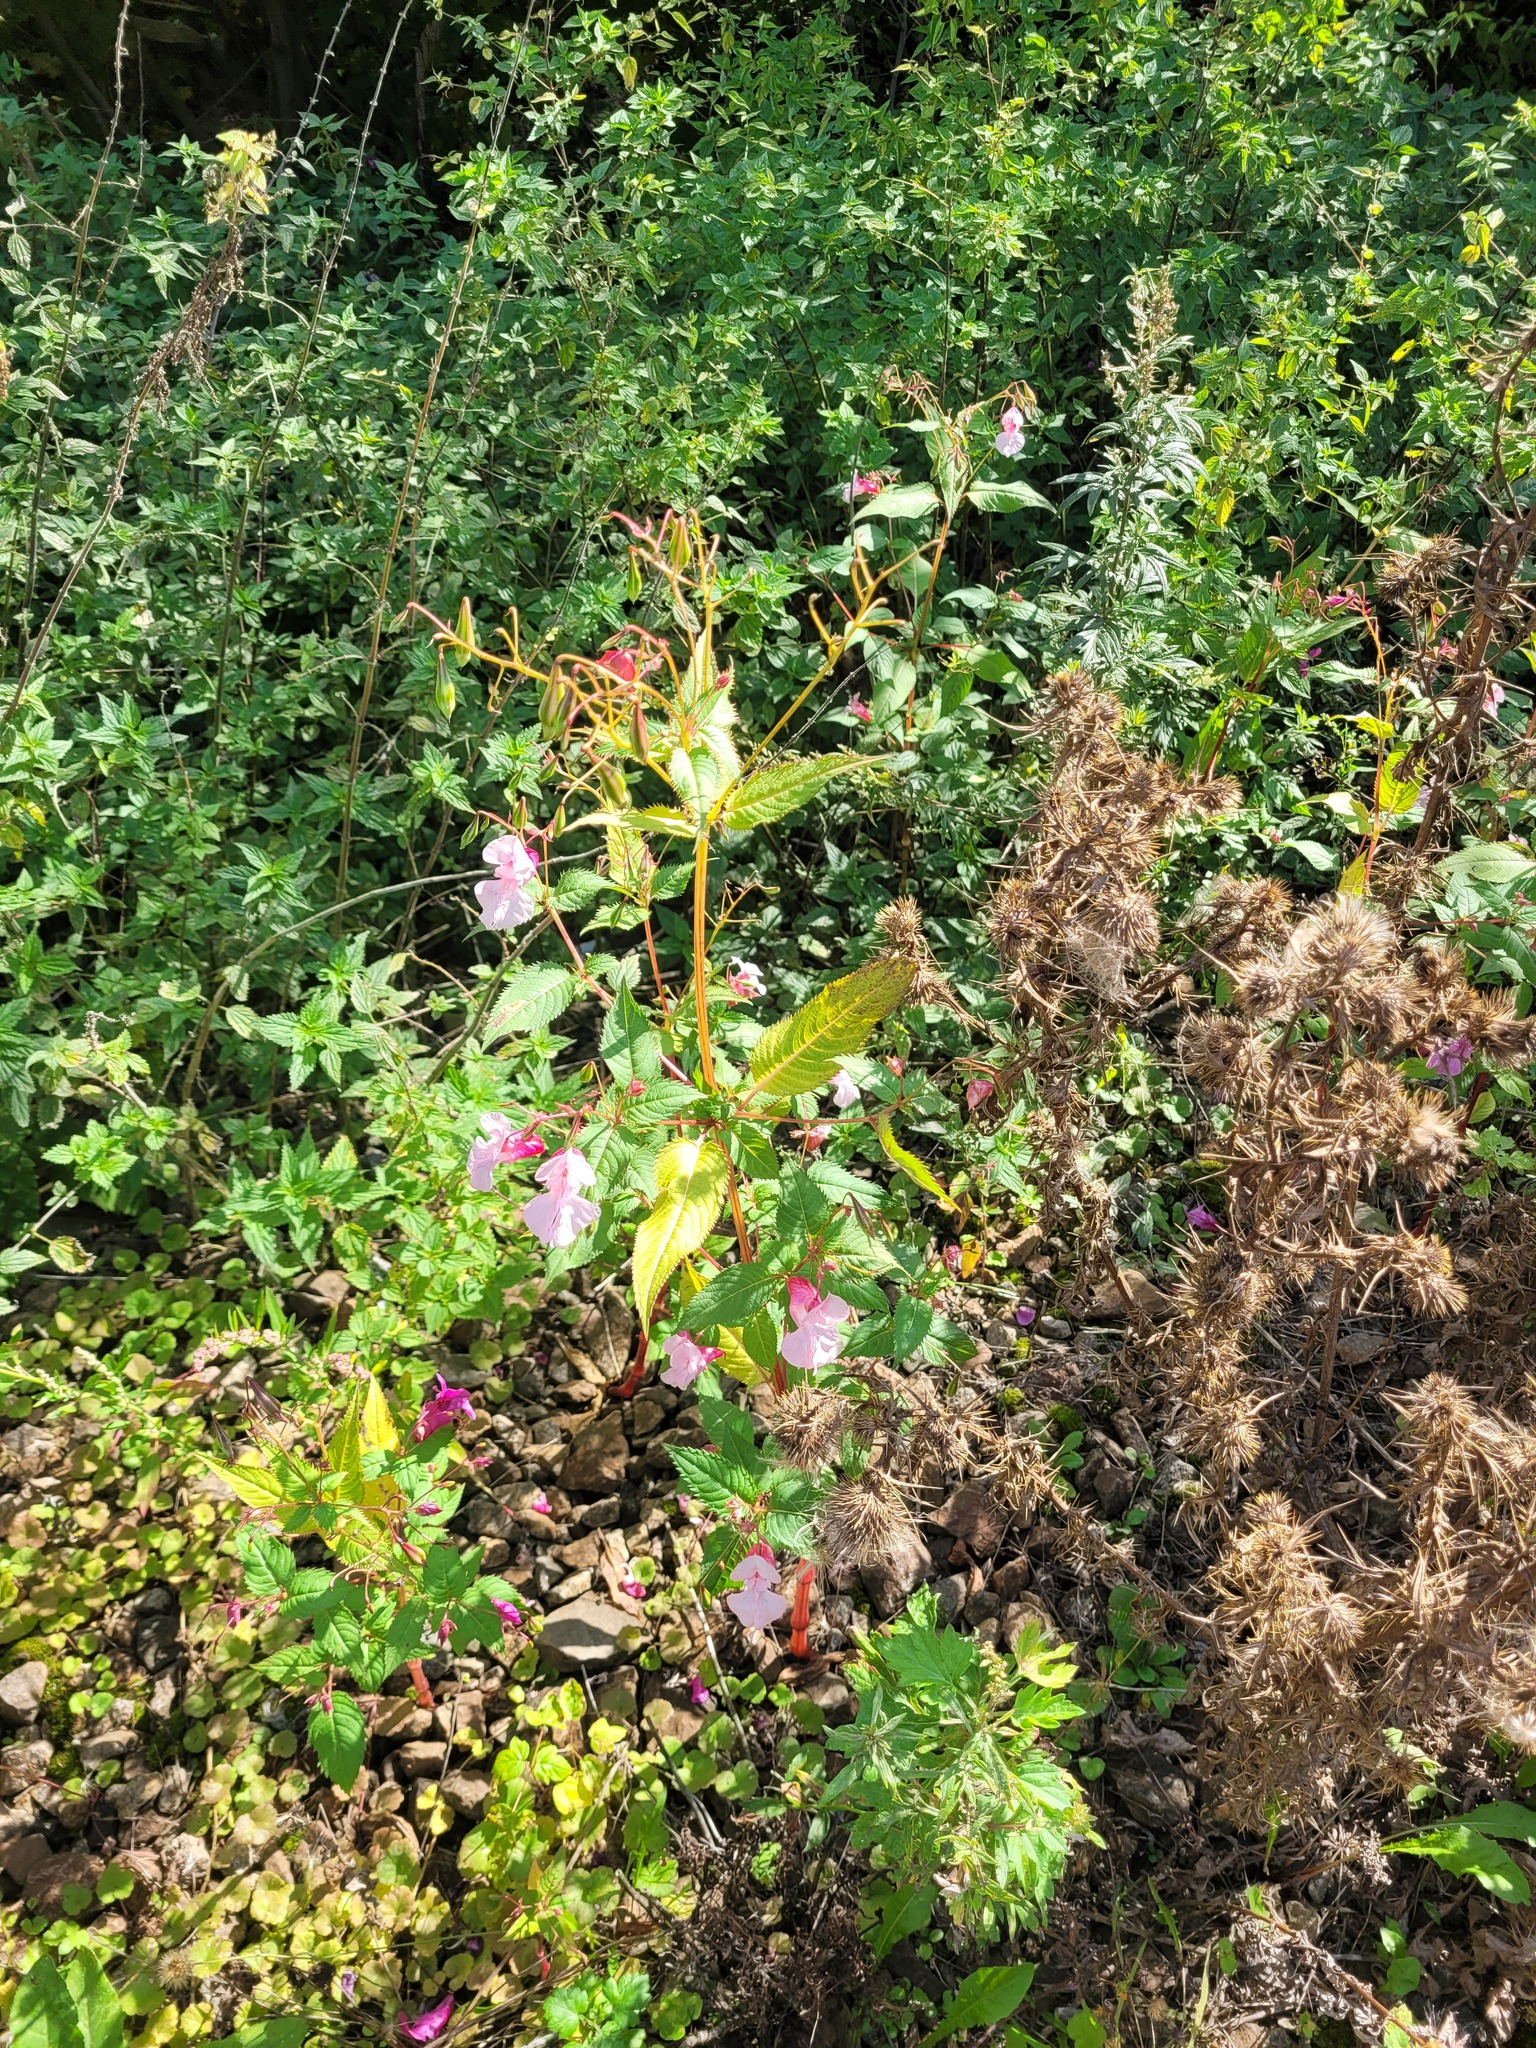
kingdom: Plantae
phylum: Tracheophyta
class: Magnoliopsida
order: Ericales
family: Balsaminaceae
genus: Impatiens
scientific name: Impatiens glandulifera
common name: Himalayan balsam
